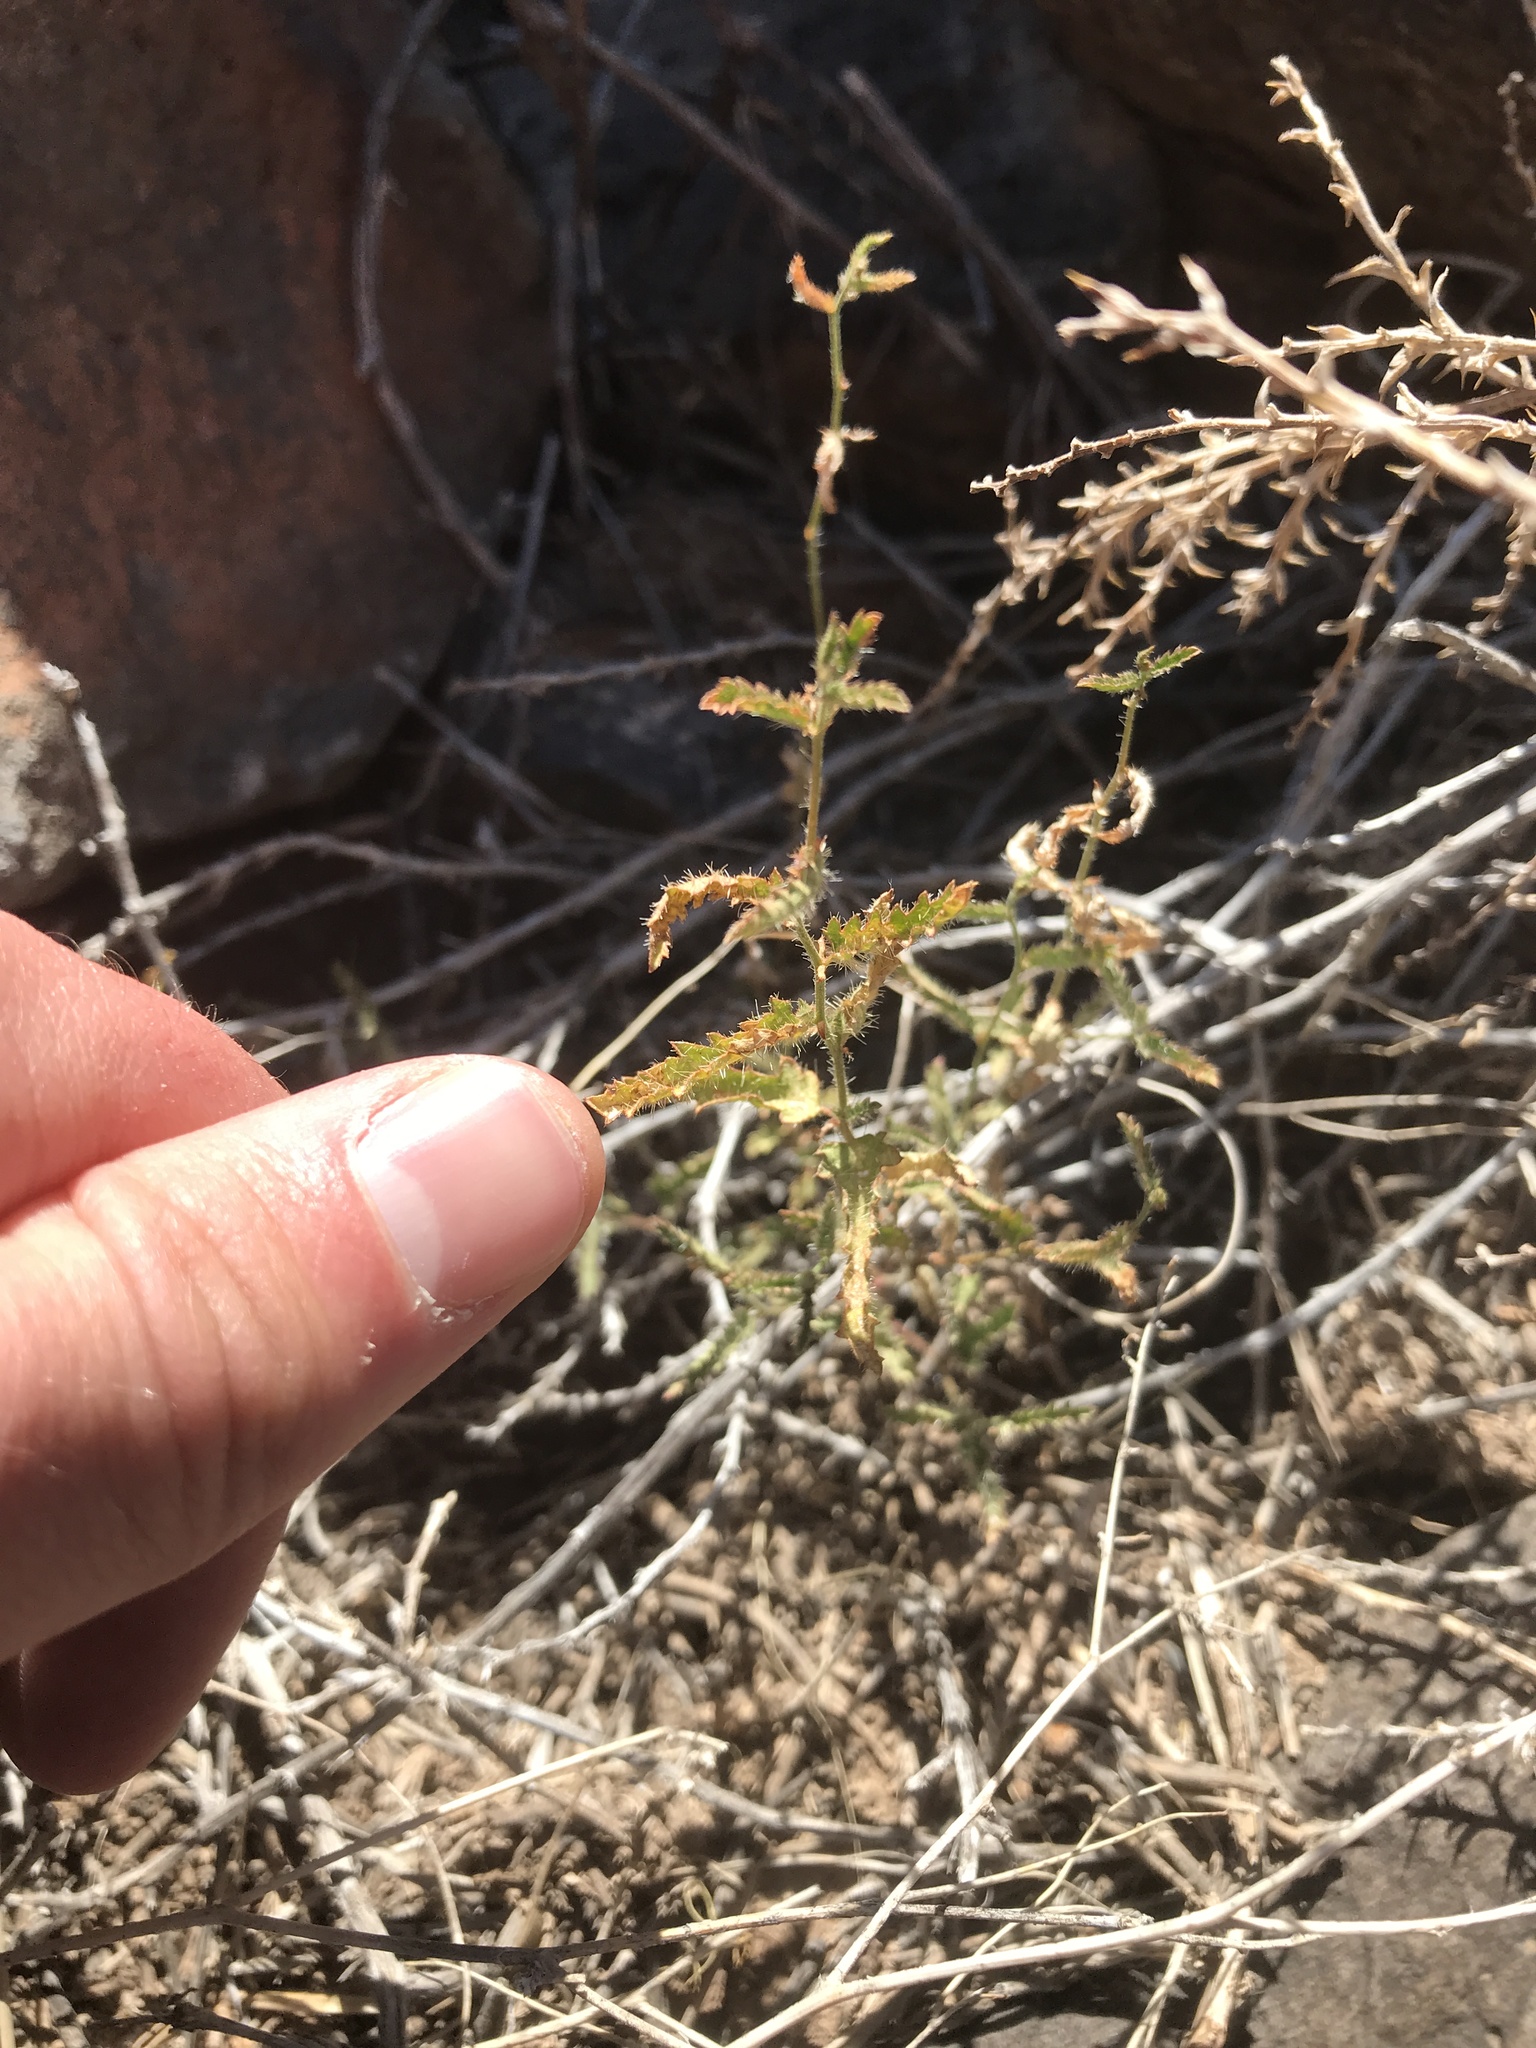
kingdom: Plantae
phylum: Tracheophyta
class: Magnoliopsida
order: Malpighiales
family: Euphorbiaceae
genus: Tragia
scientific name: Tragia ramosa
